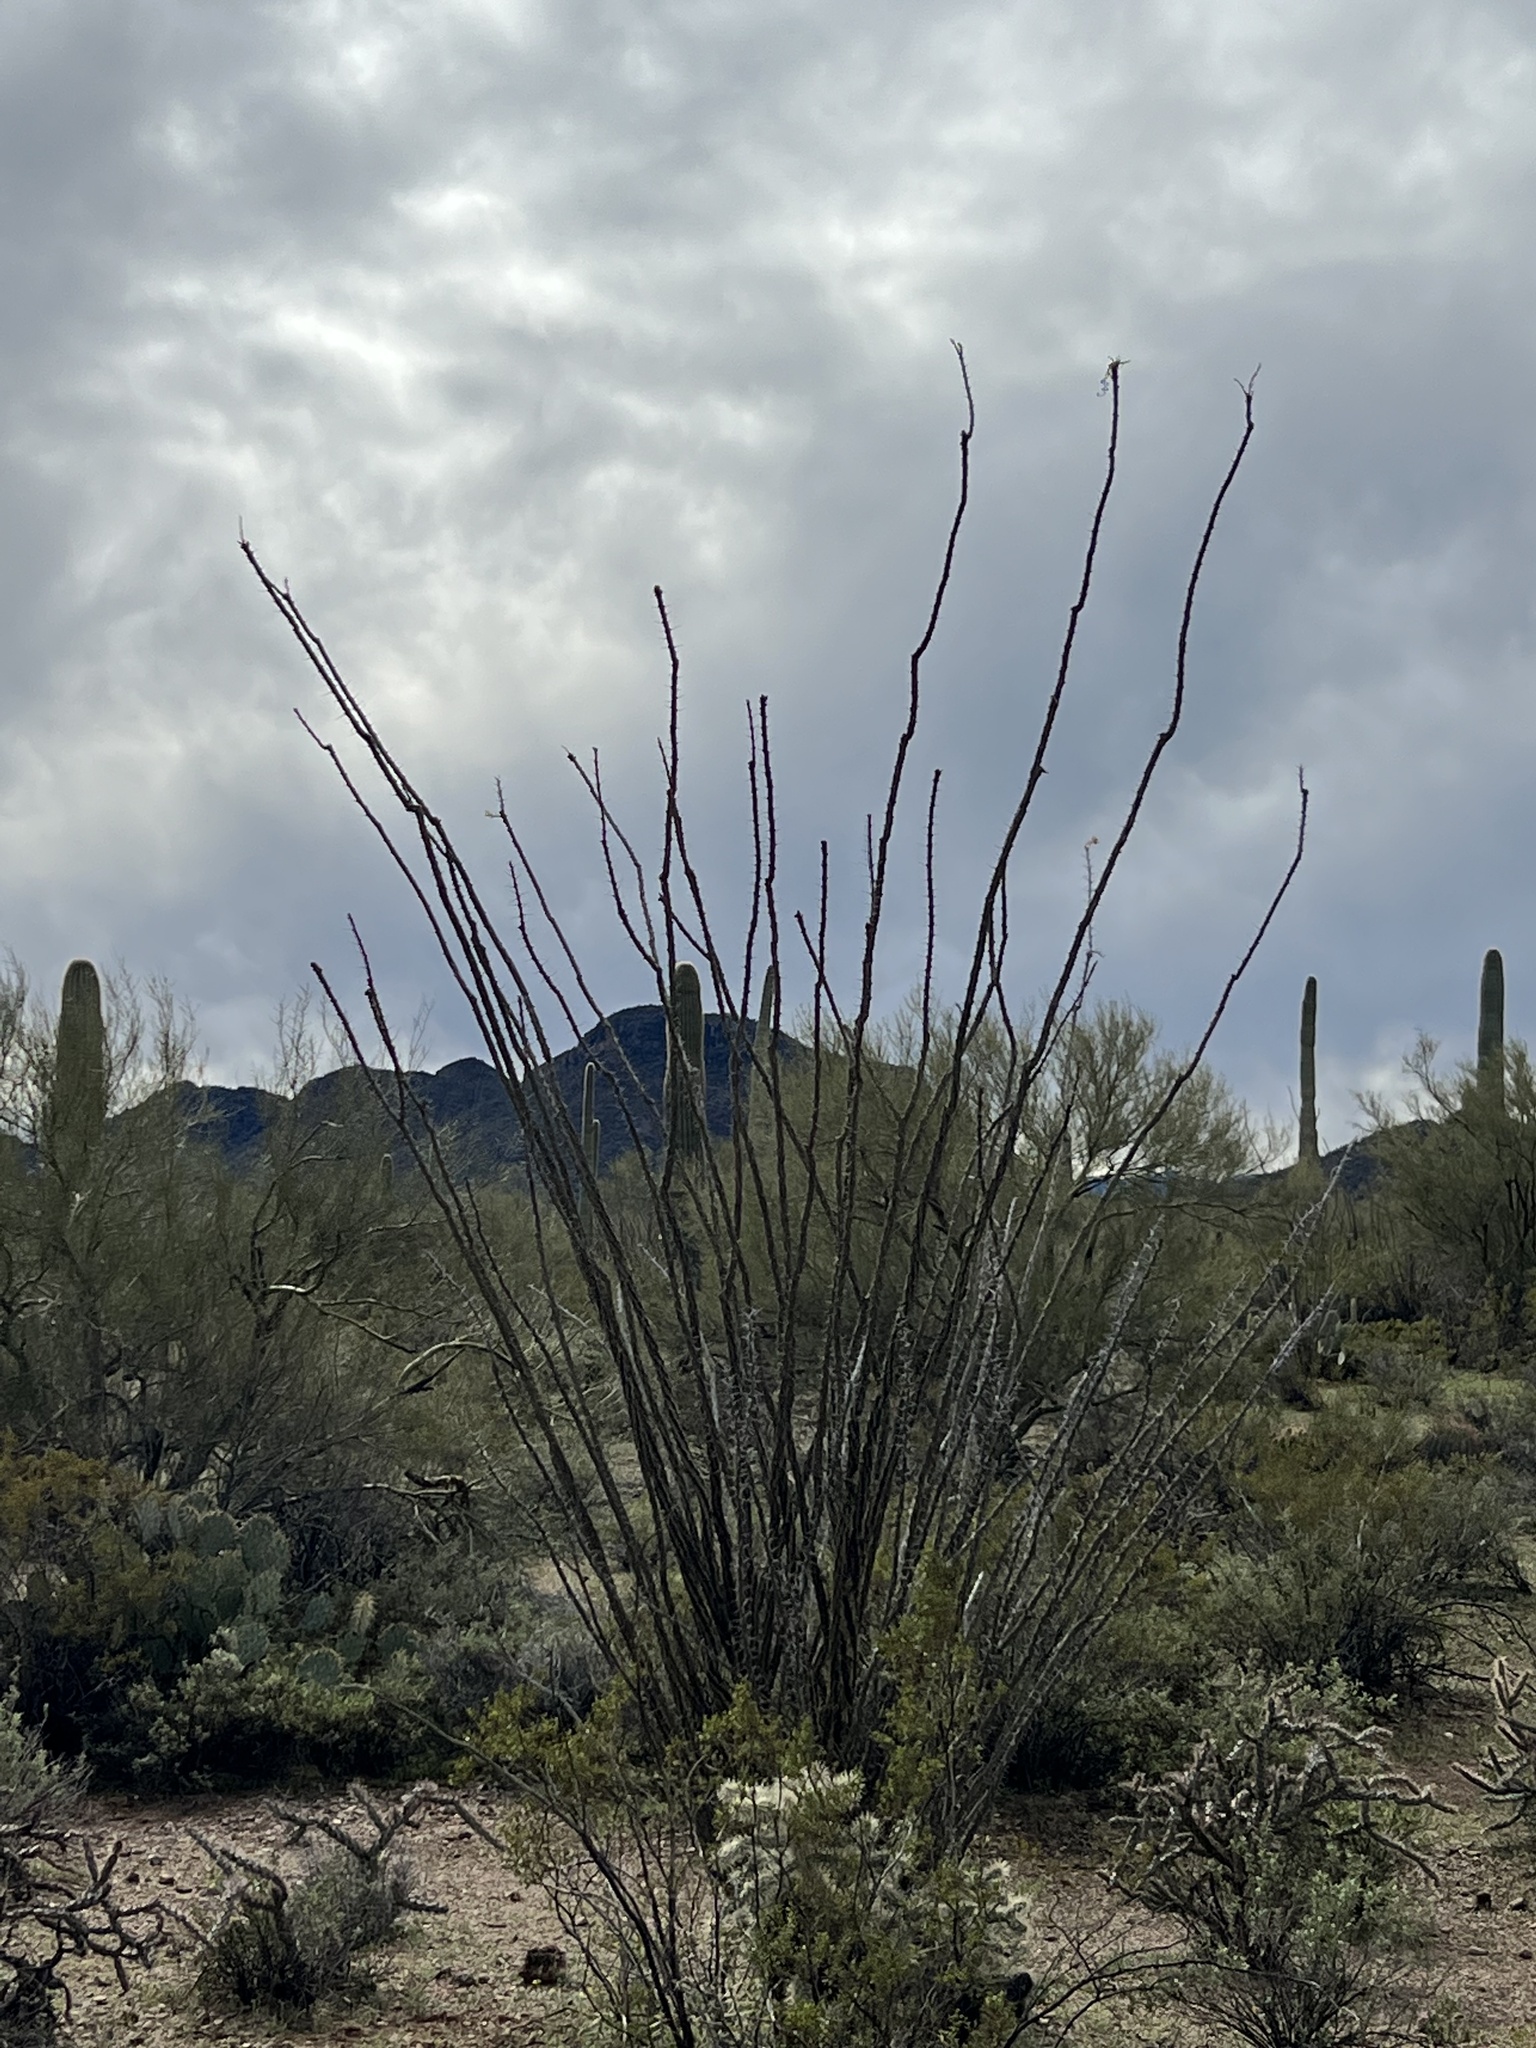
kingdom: Plantae
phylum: Tracheophyta
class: Magnoliopsida
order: Ericales
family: Fouquieriaceae
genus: Fouquieria
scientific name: Fouquieria splendens
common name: Vine-cactus
